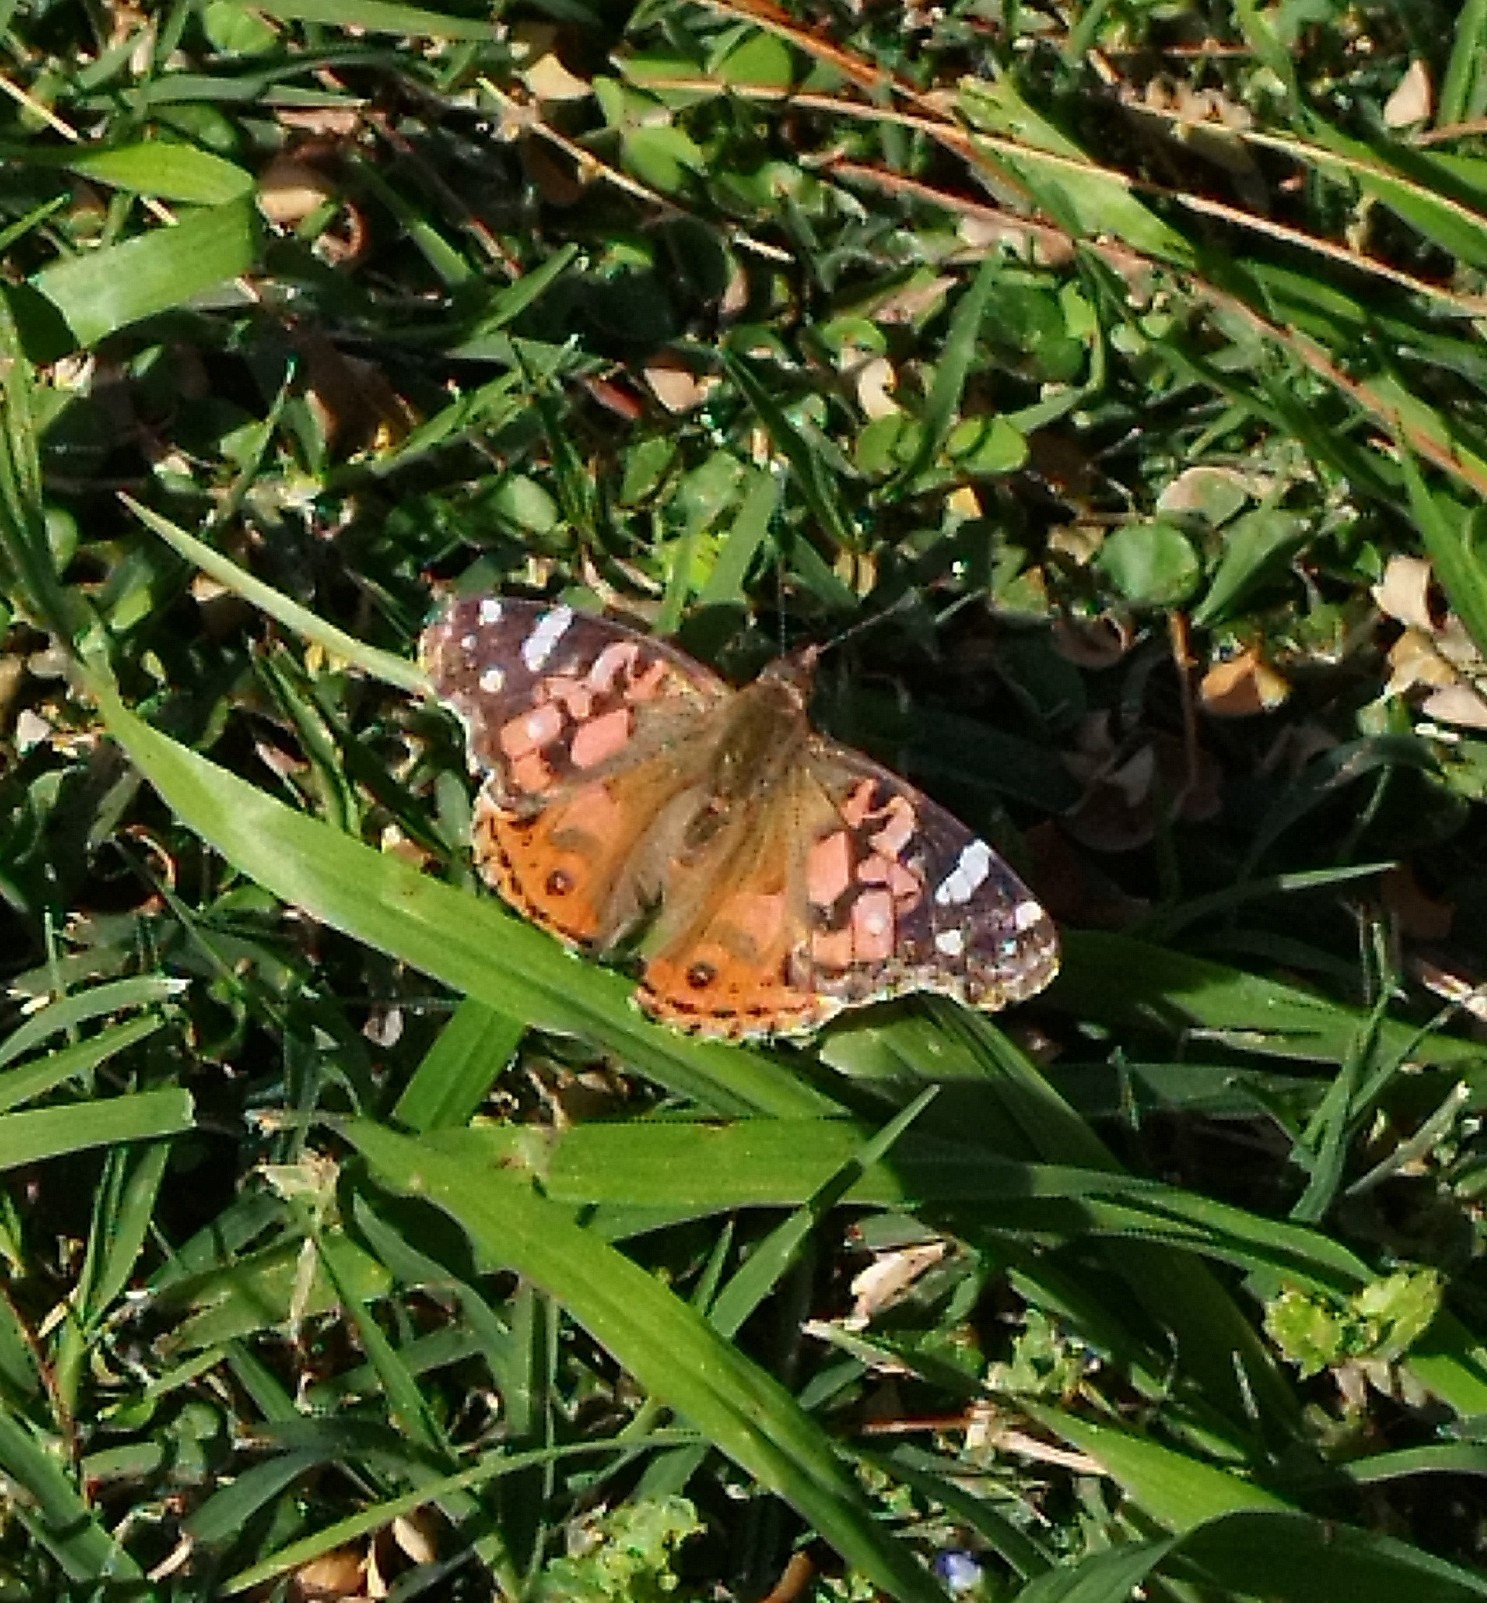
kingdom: Animalia
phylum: Arthropoda
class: Insecta
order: Lepidoptera
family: Nymphalidae
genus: Vanessa
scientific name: Vanessa braziliensis
